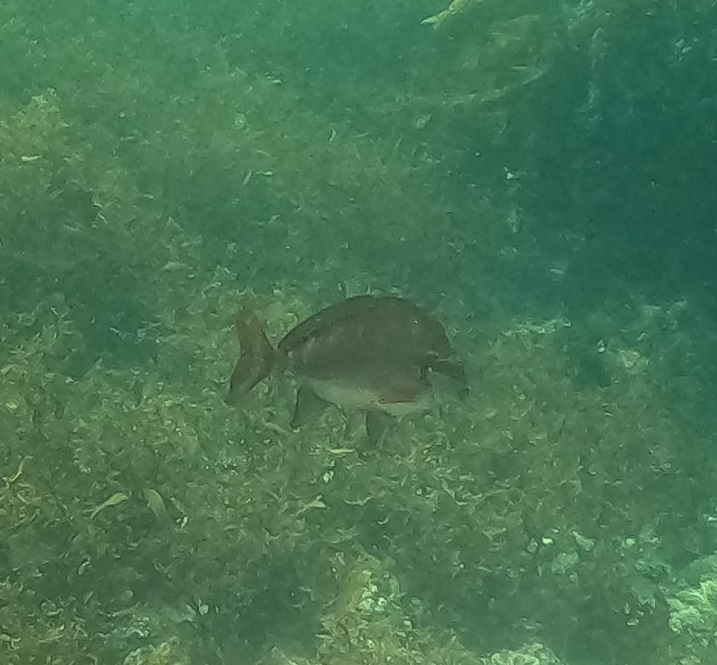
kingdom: Animalia
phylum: Chordata
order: Perciformes
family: Latridae
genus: Morwong
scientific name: Morwong fuscus
